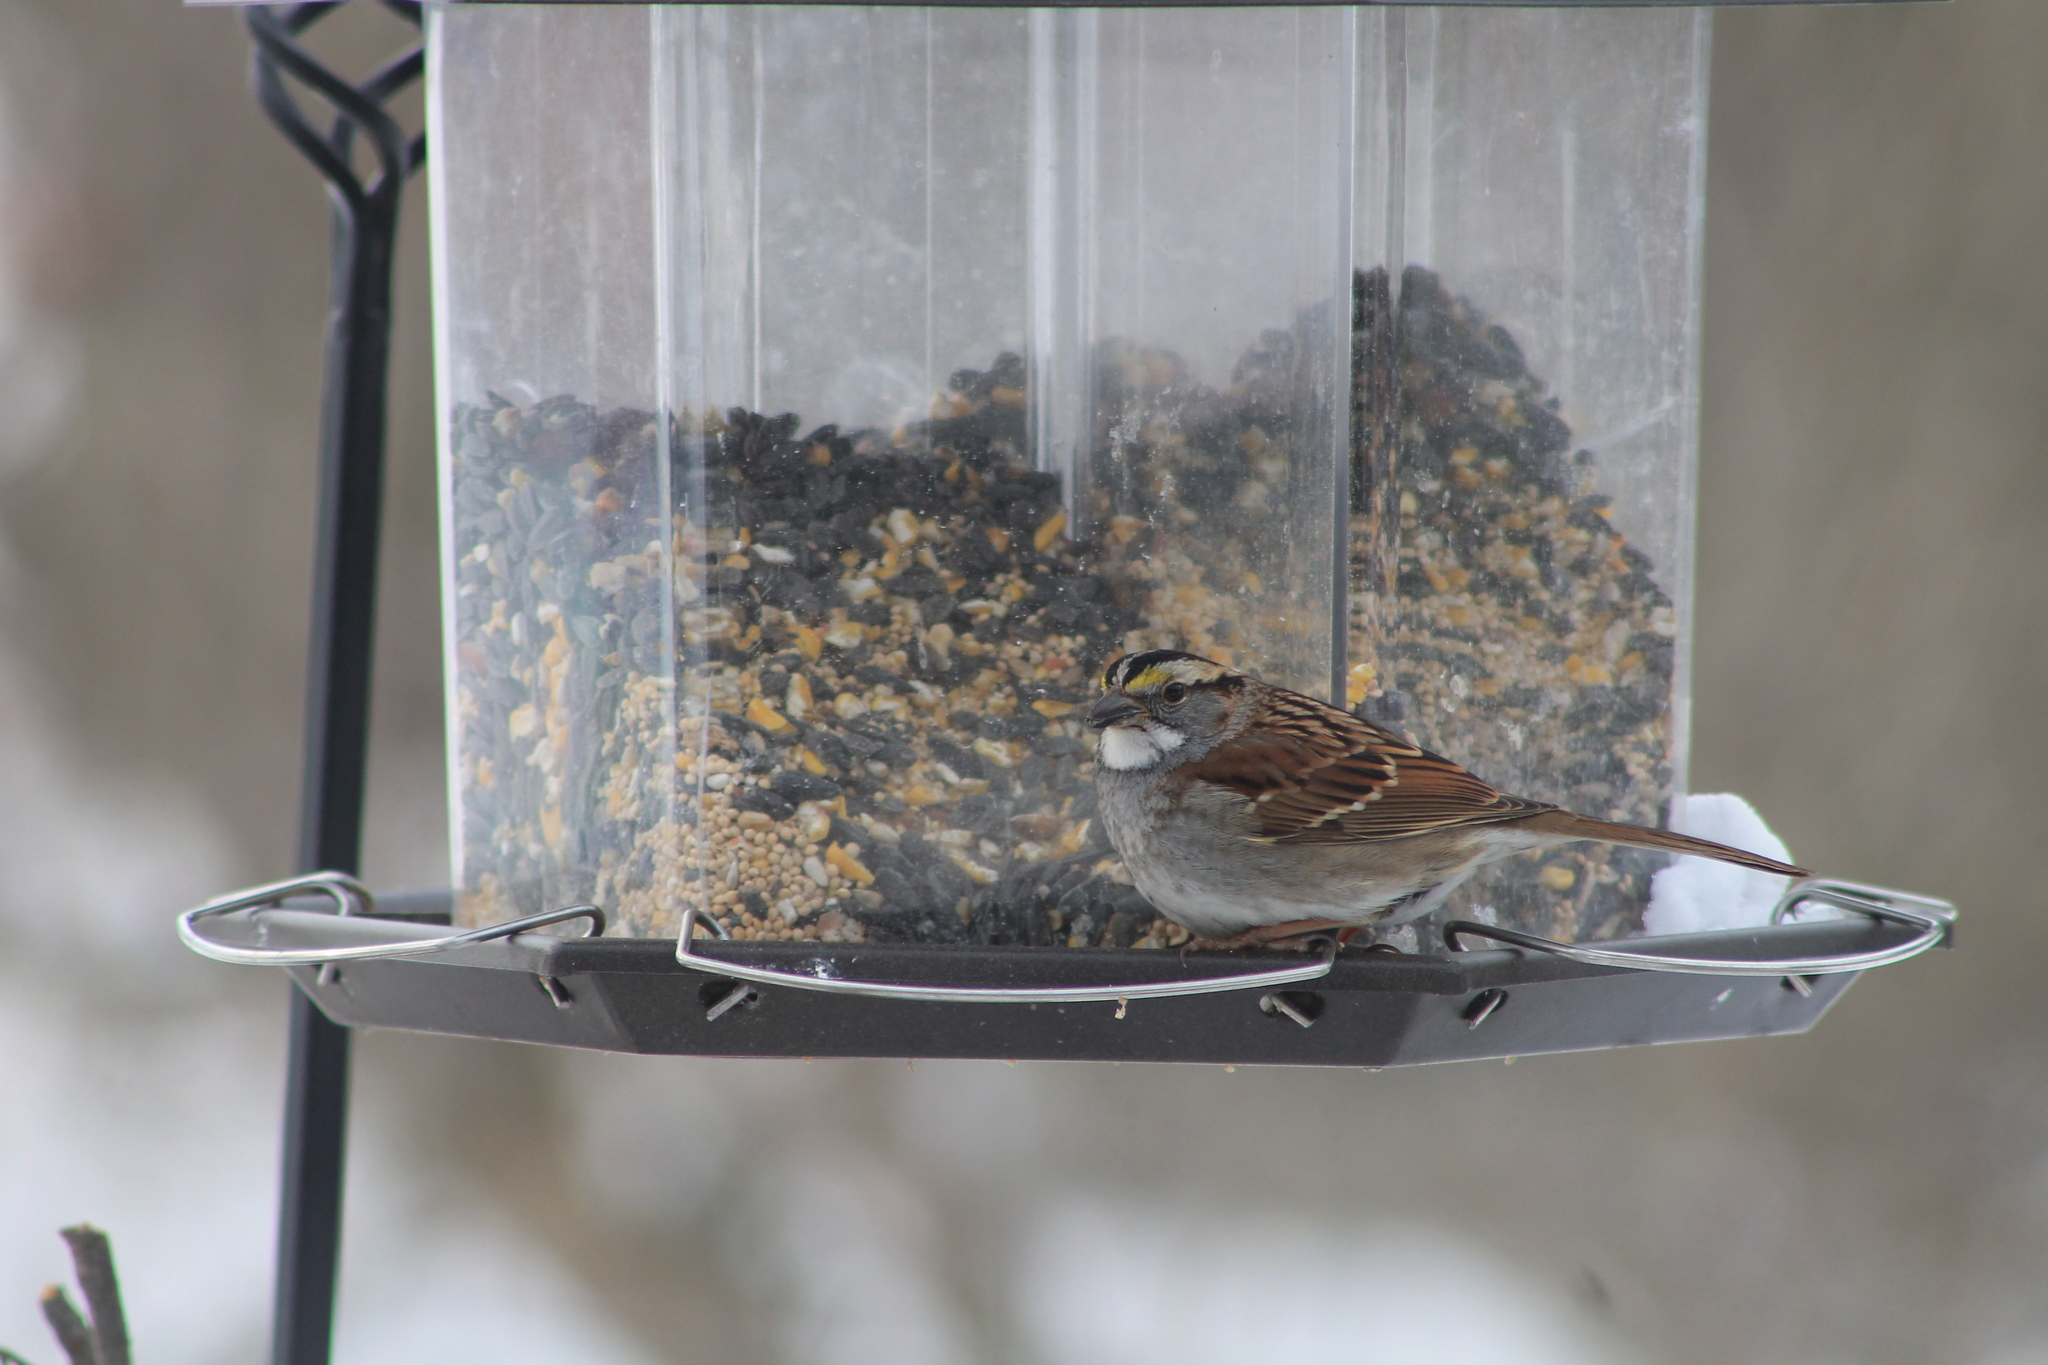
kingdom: Animalia
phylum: Chordata
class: Aves
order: Passeriformes
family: Passerellidae
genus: Zonotrichia
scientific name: Zonotrichia albicollis
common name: White-throated sparrow
